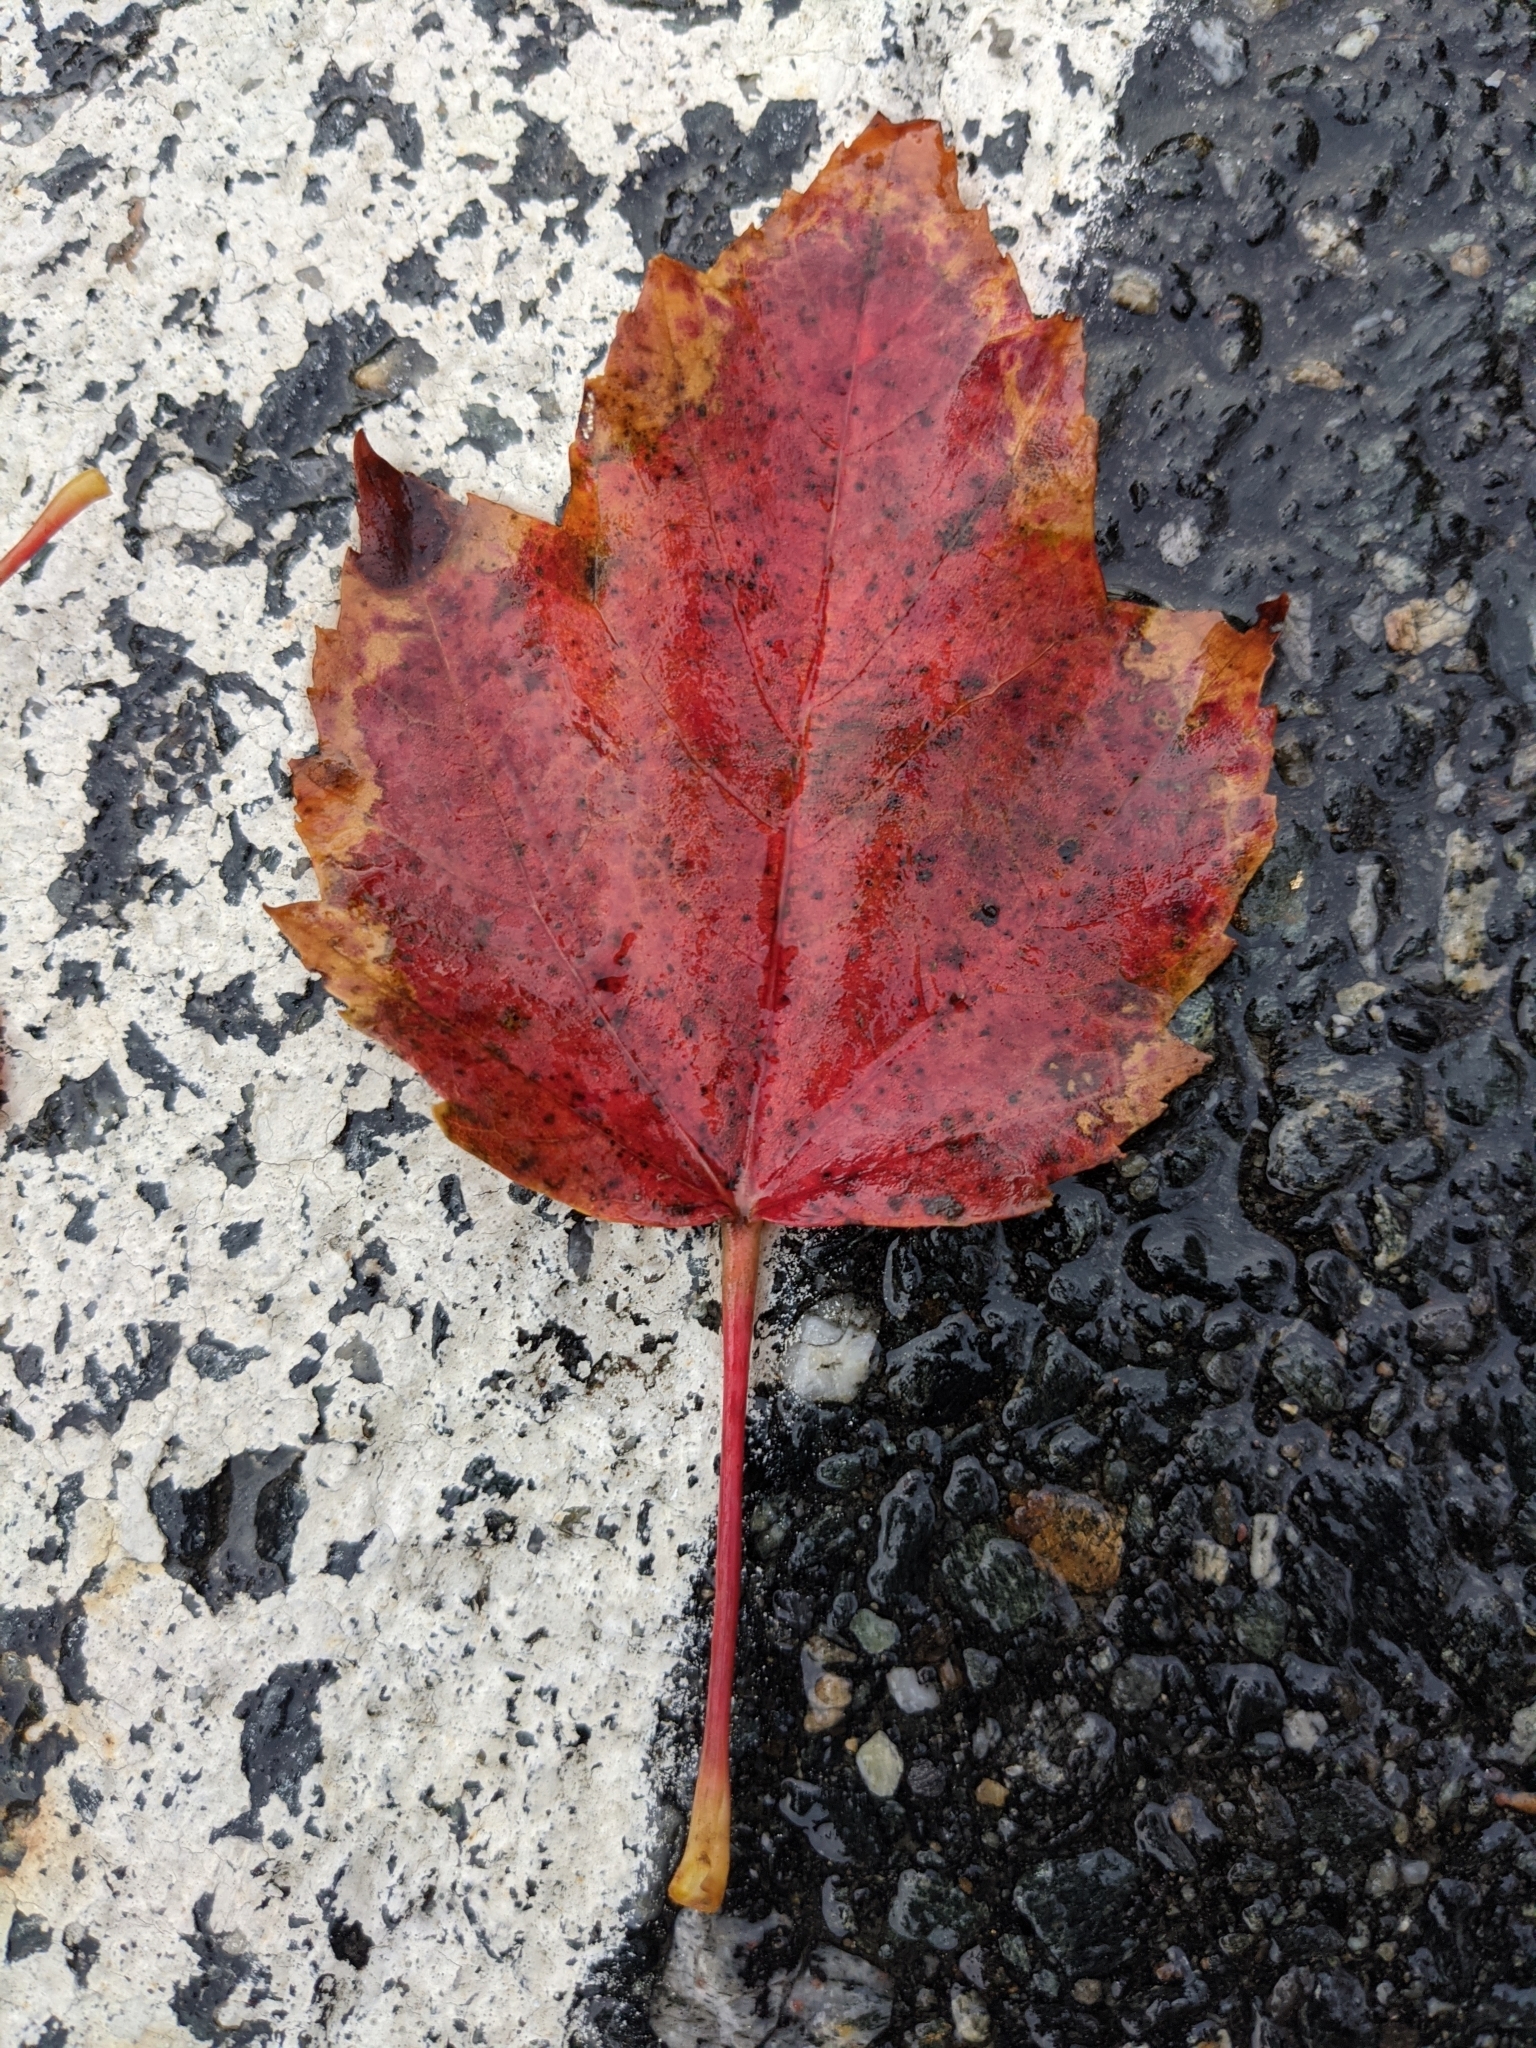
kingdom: Plantae
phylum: Tracheophyta
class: Magnoliopsida
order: Sapindales
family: Sapindaceae
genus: Acer
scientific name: Acer rubrum
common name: Red maple
